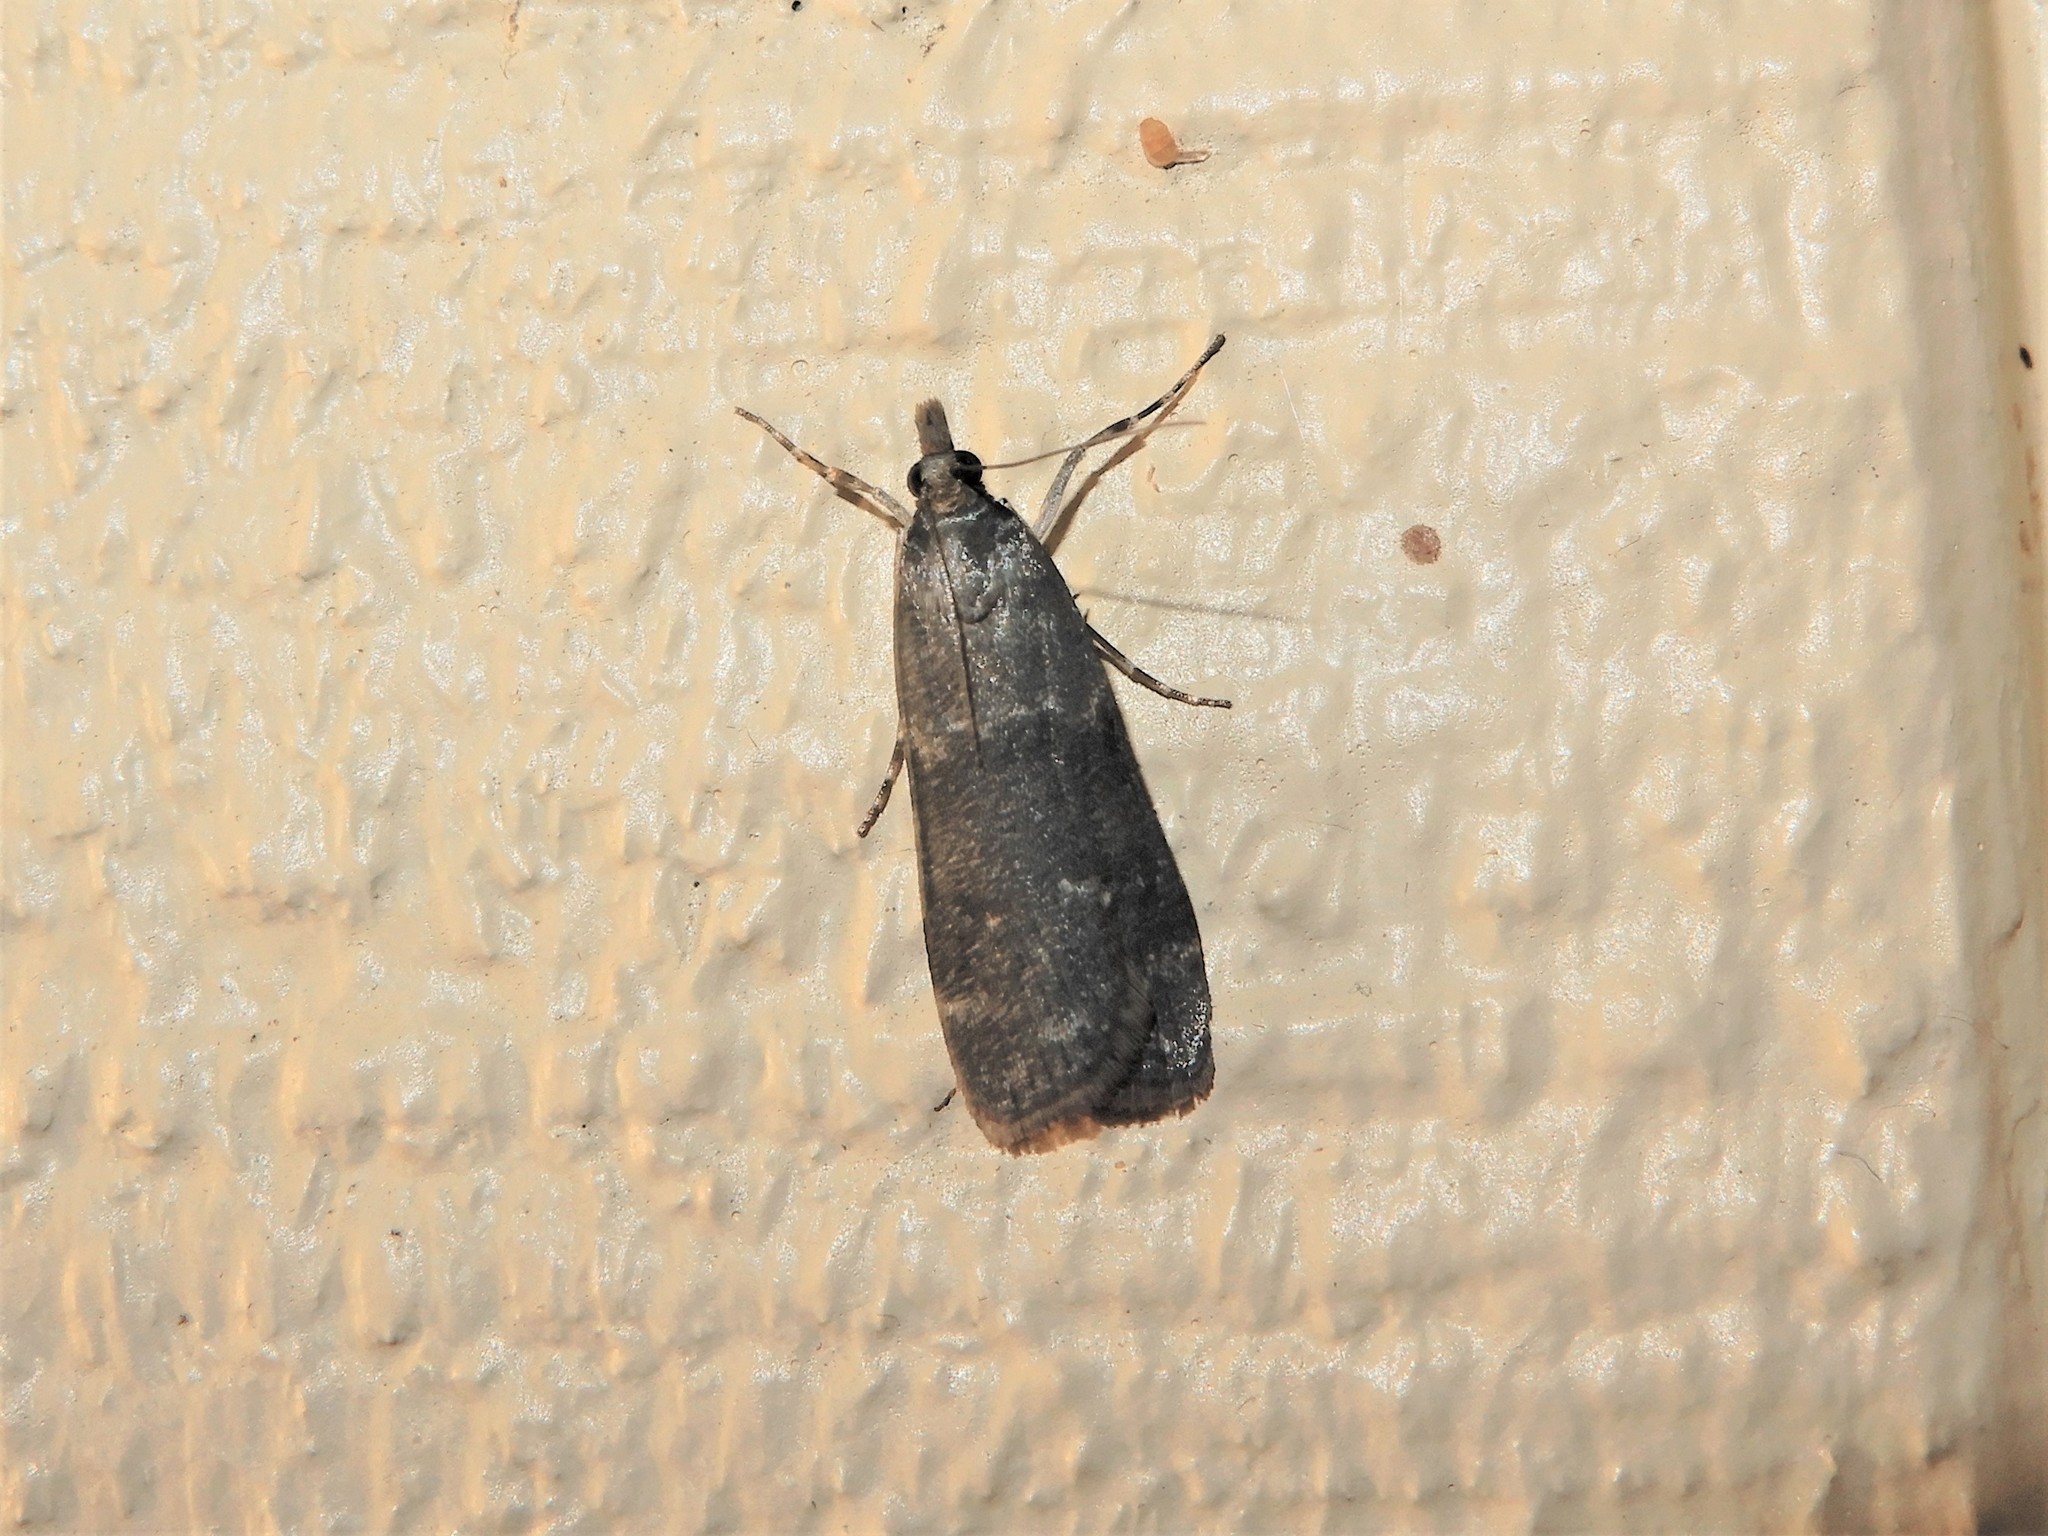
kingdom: Animalia
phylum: Arthropoda
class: Insecta
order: Lepidoptera
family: Crambidae
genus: Eudonia
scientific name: Eudonia cataxesta
